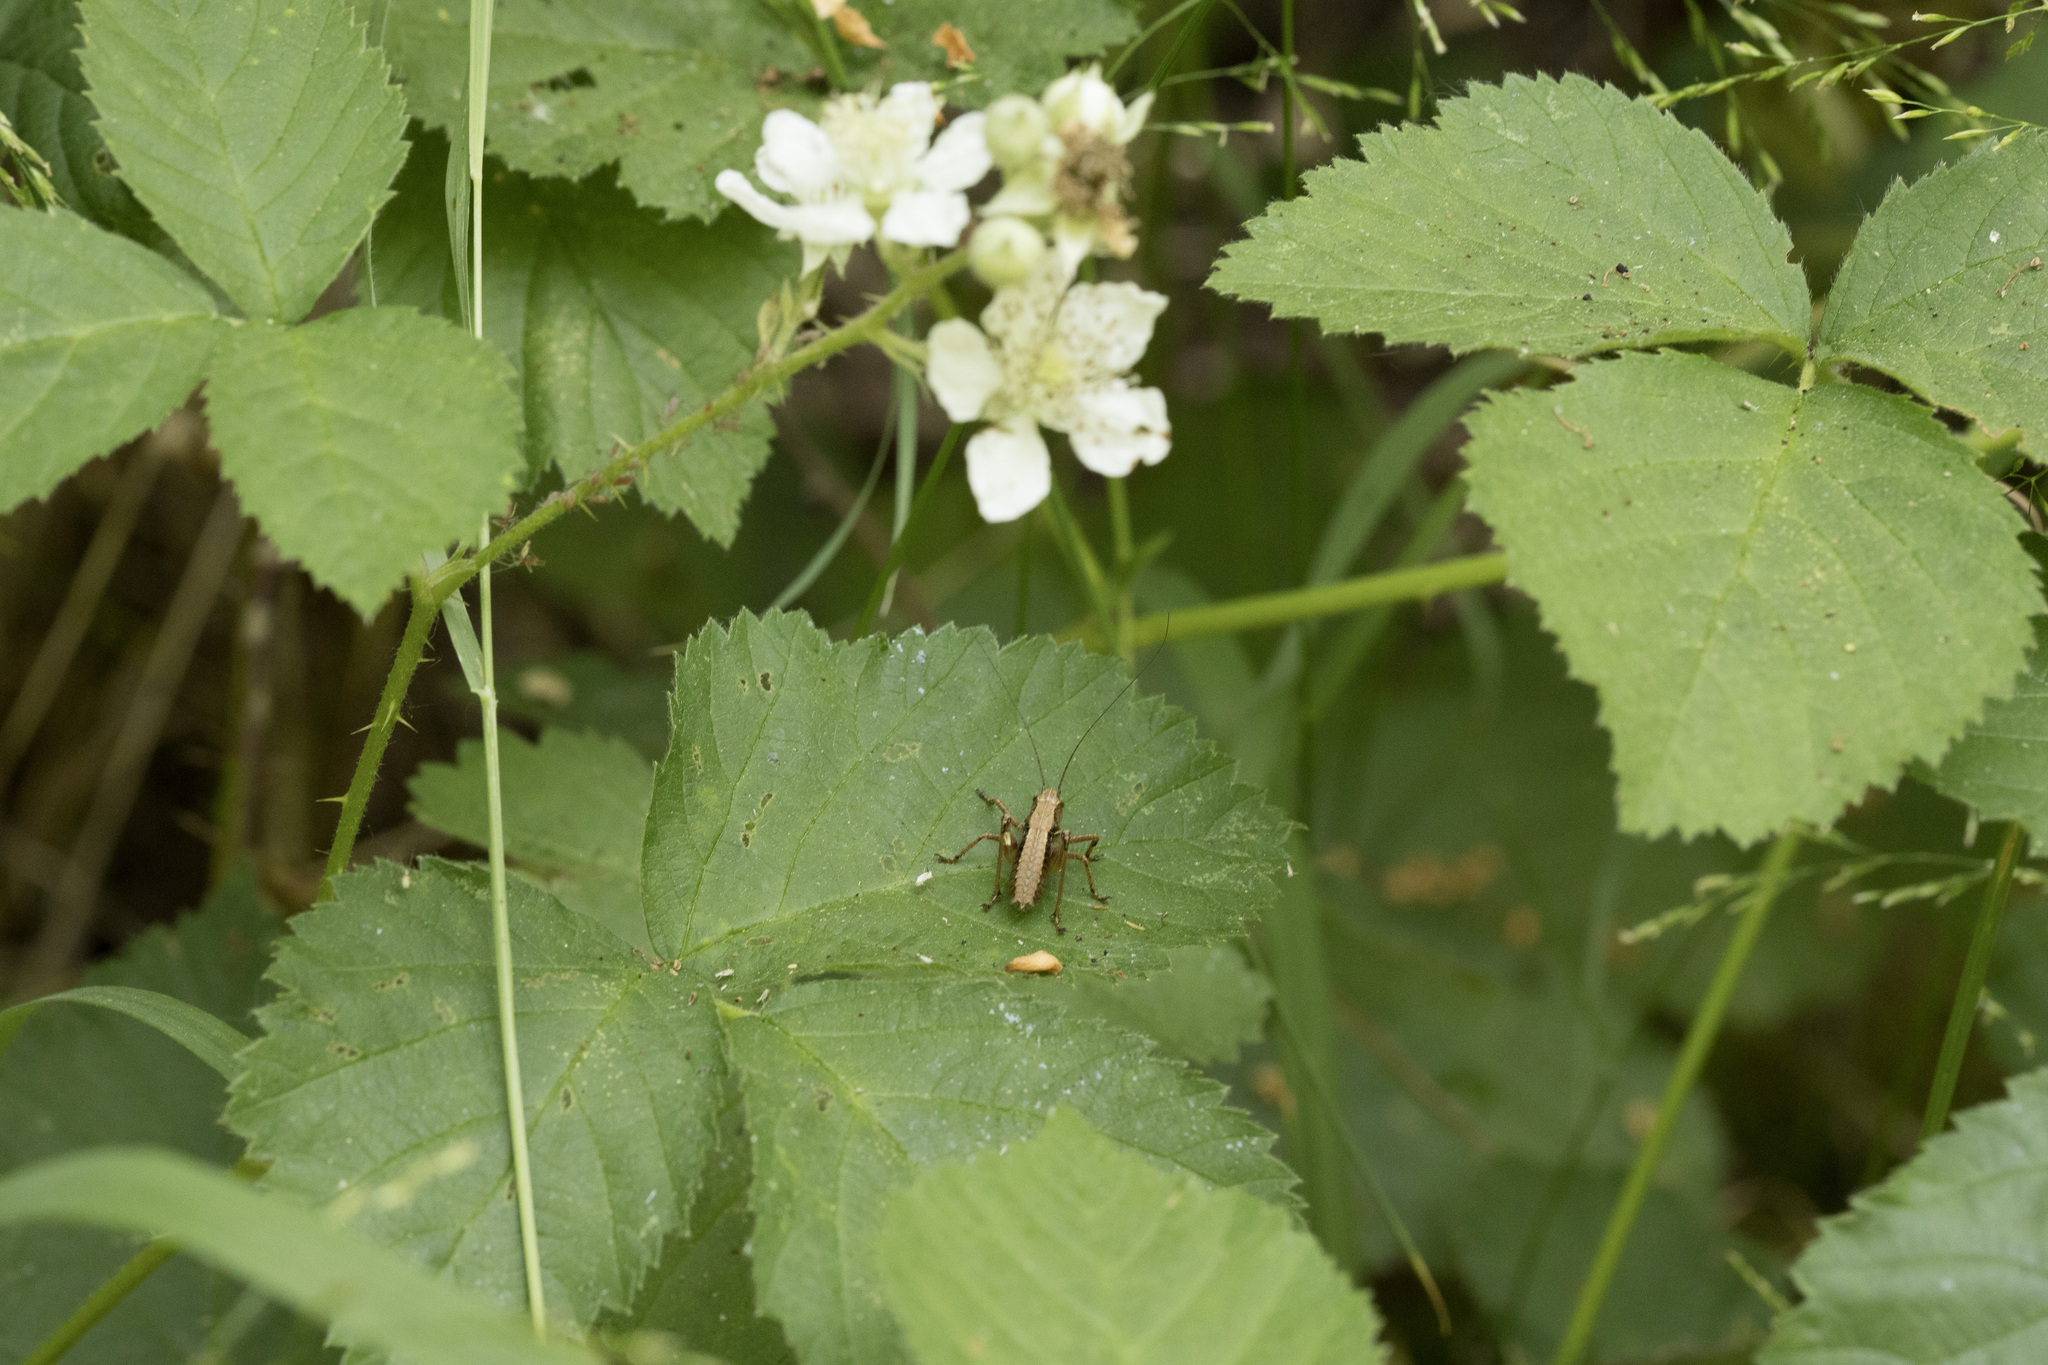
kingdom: Animalia
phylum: Arthropoda
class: Insecta
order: Orthoptera
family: Tettigoniidae
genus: Pholidoptera
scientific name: Pholidoptera griseoaptera
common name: Dark bush-cricket
